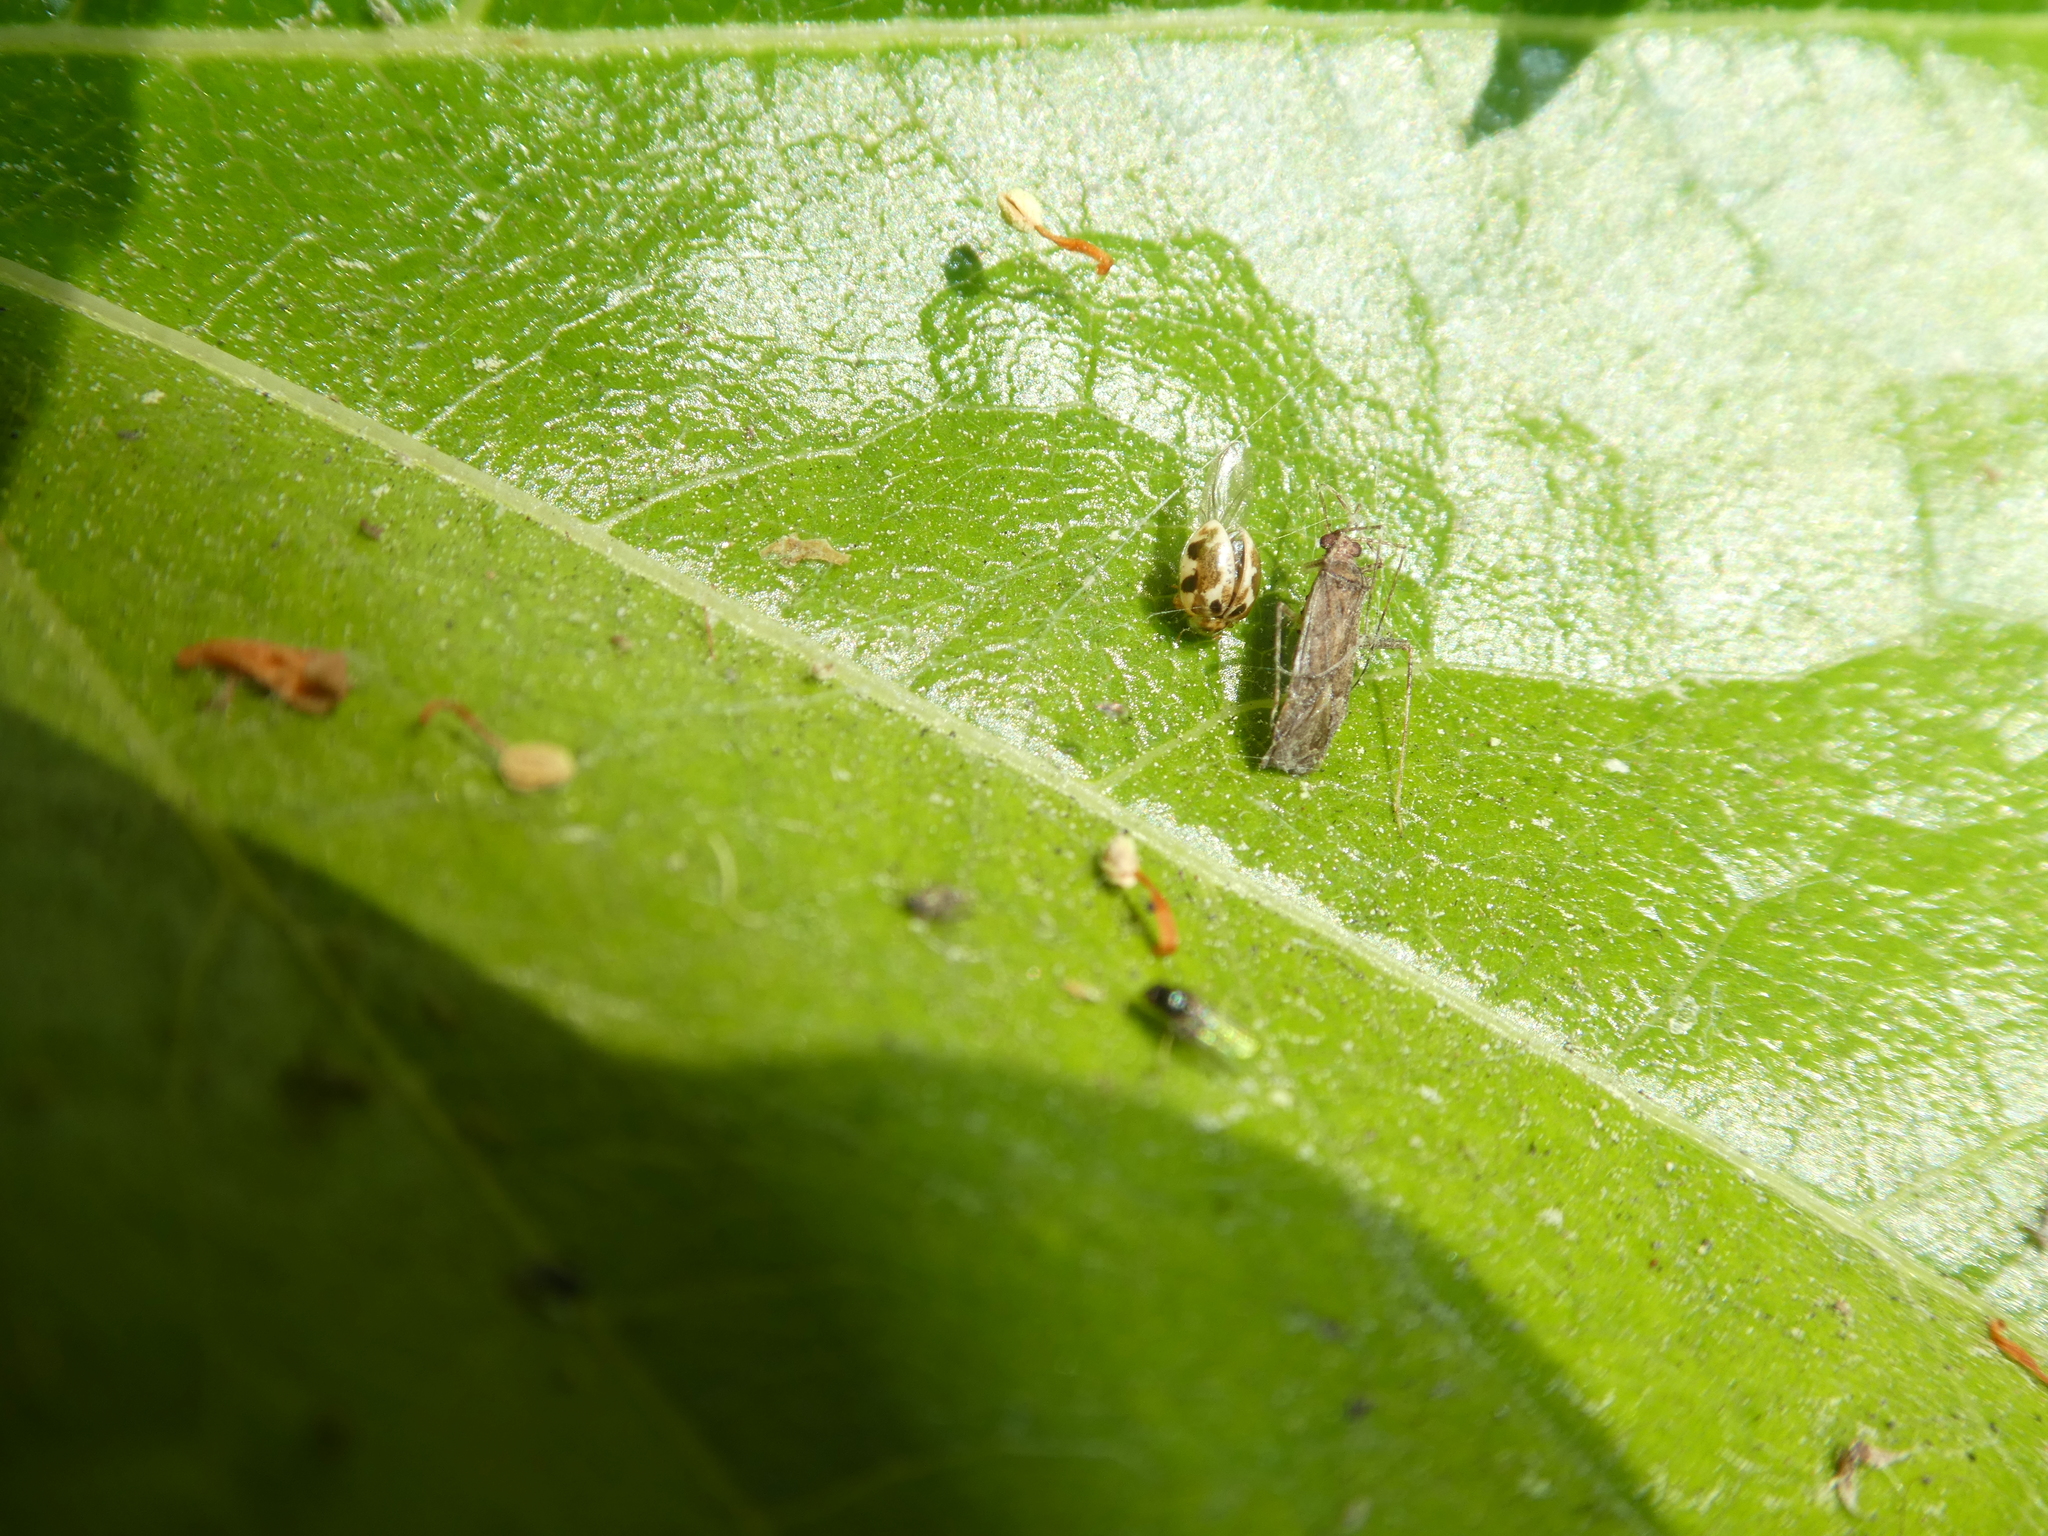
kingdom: Animalia
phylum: Arthropoda
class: Insecta
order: Coleoptera
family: Coccinellidae
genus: Psyllobora
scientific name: Psyllobora vigintimaculata
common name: Ladybird beetle
